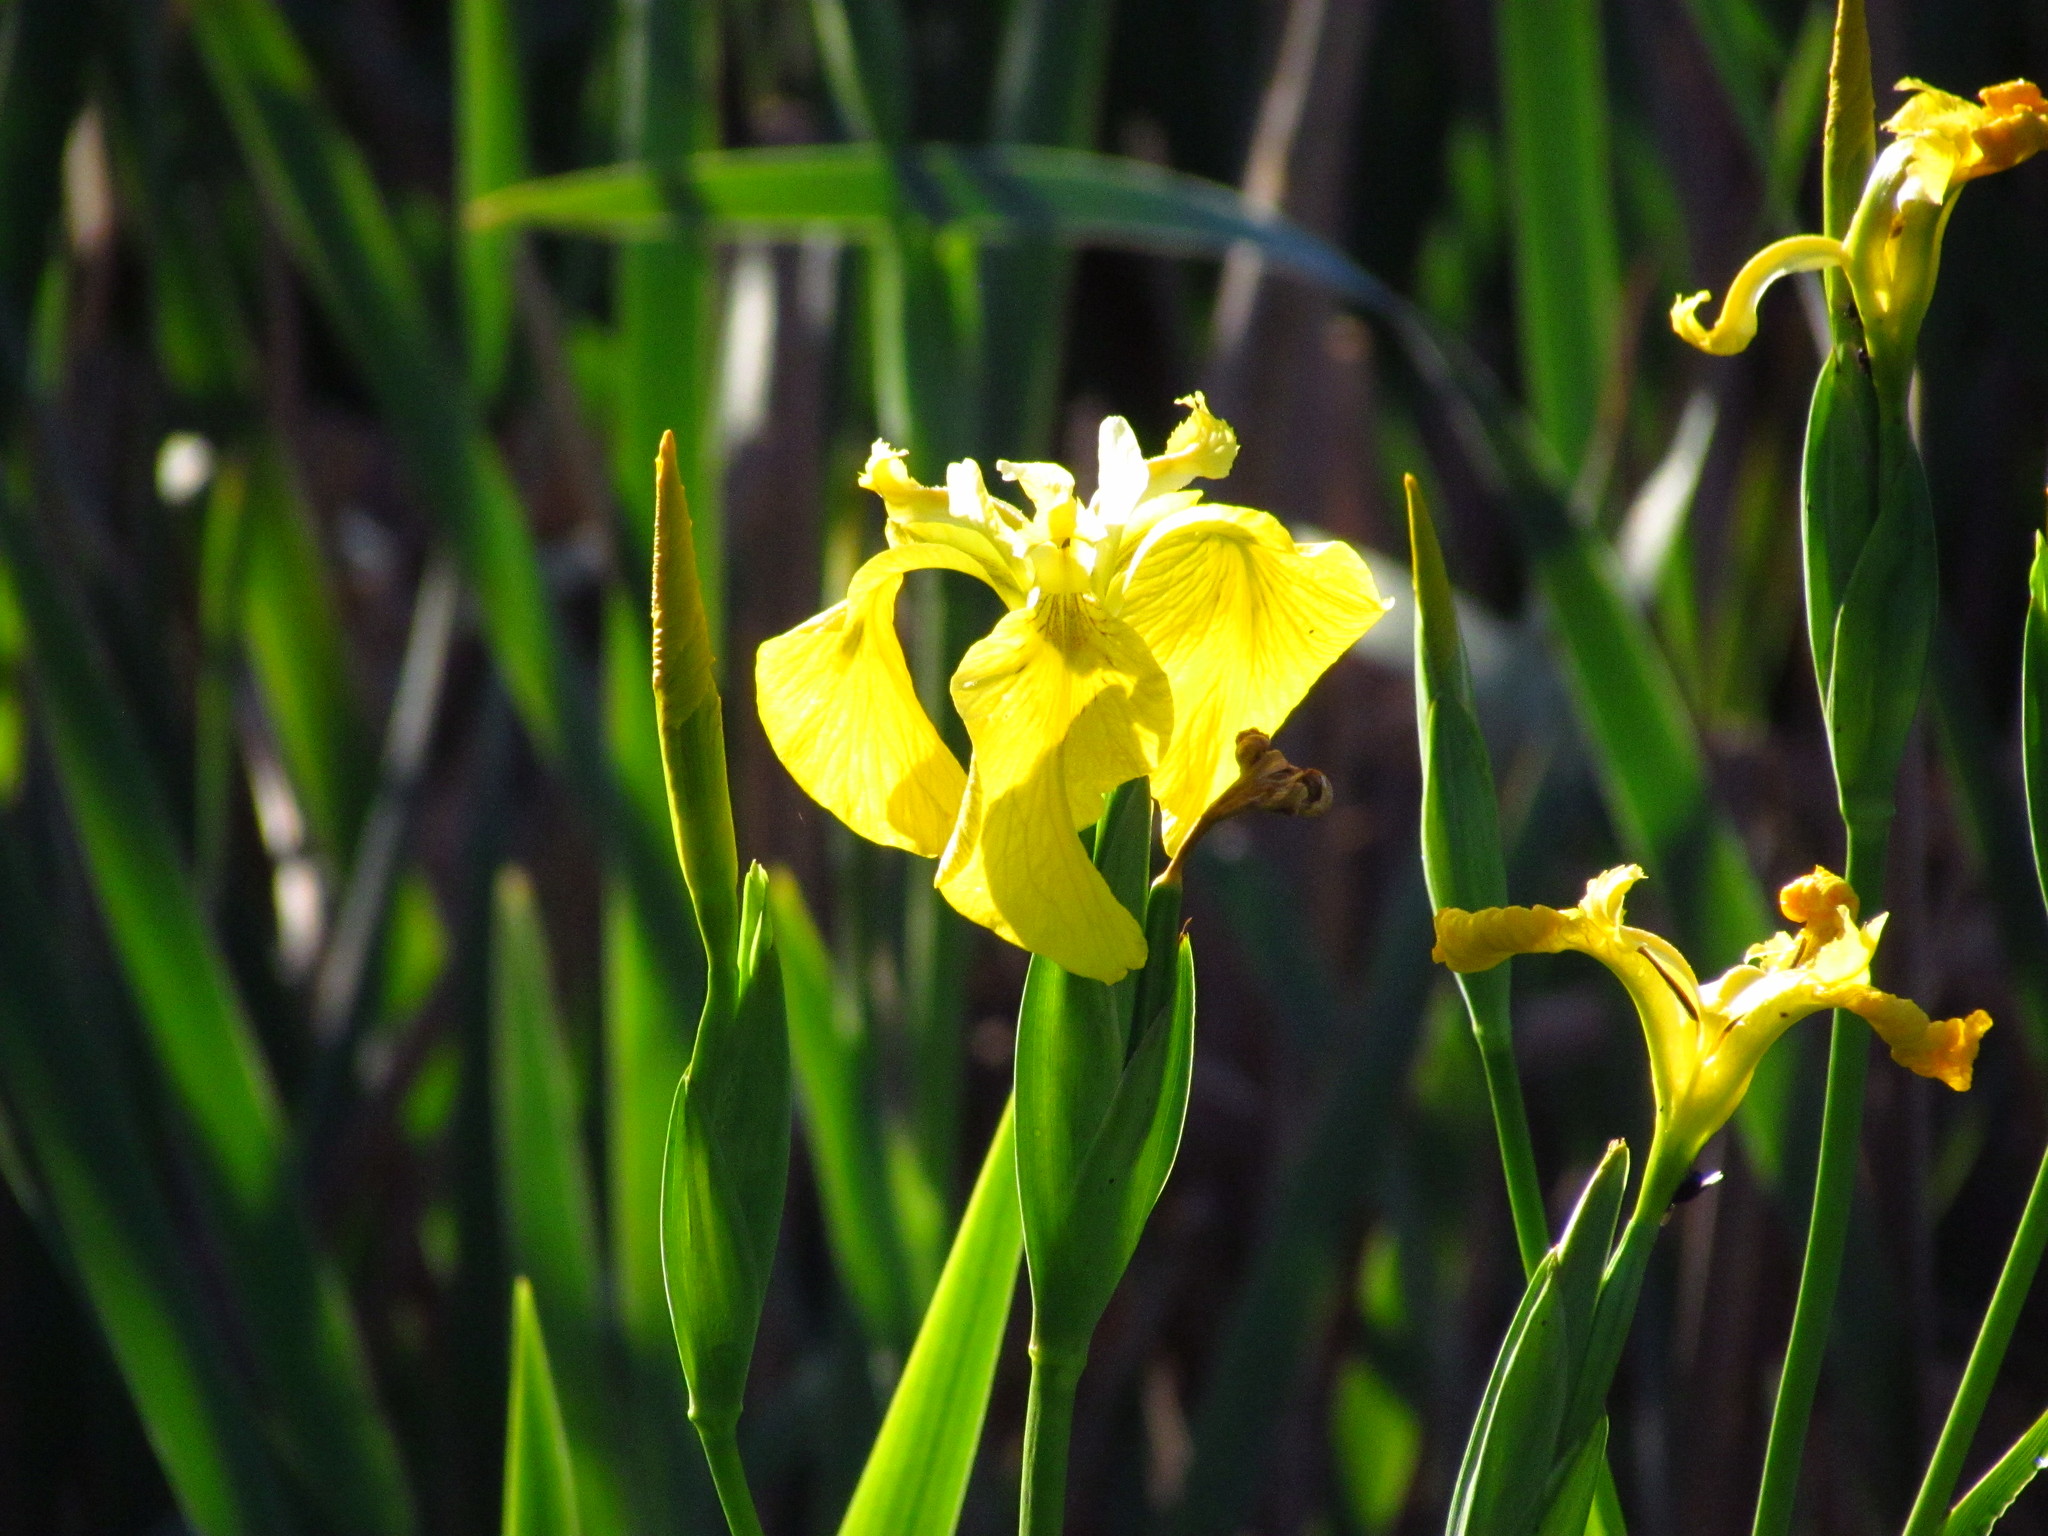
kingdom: Plantae
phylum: Tracheophyta
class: Liliopsida
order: Asparagales
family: Iridaceae
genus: Iris
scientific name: Iris pseudacorus
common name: Yellow flag
